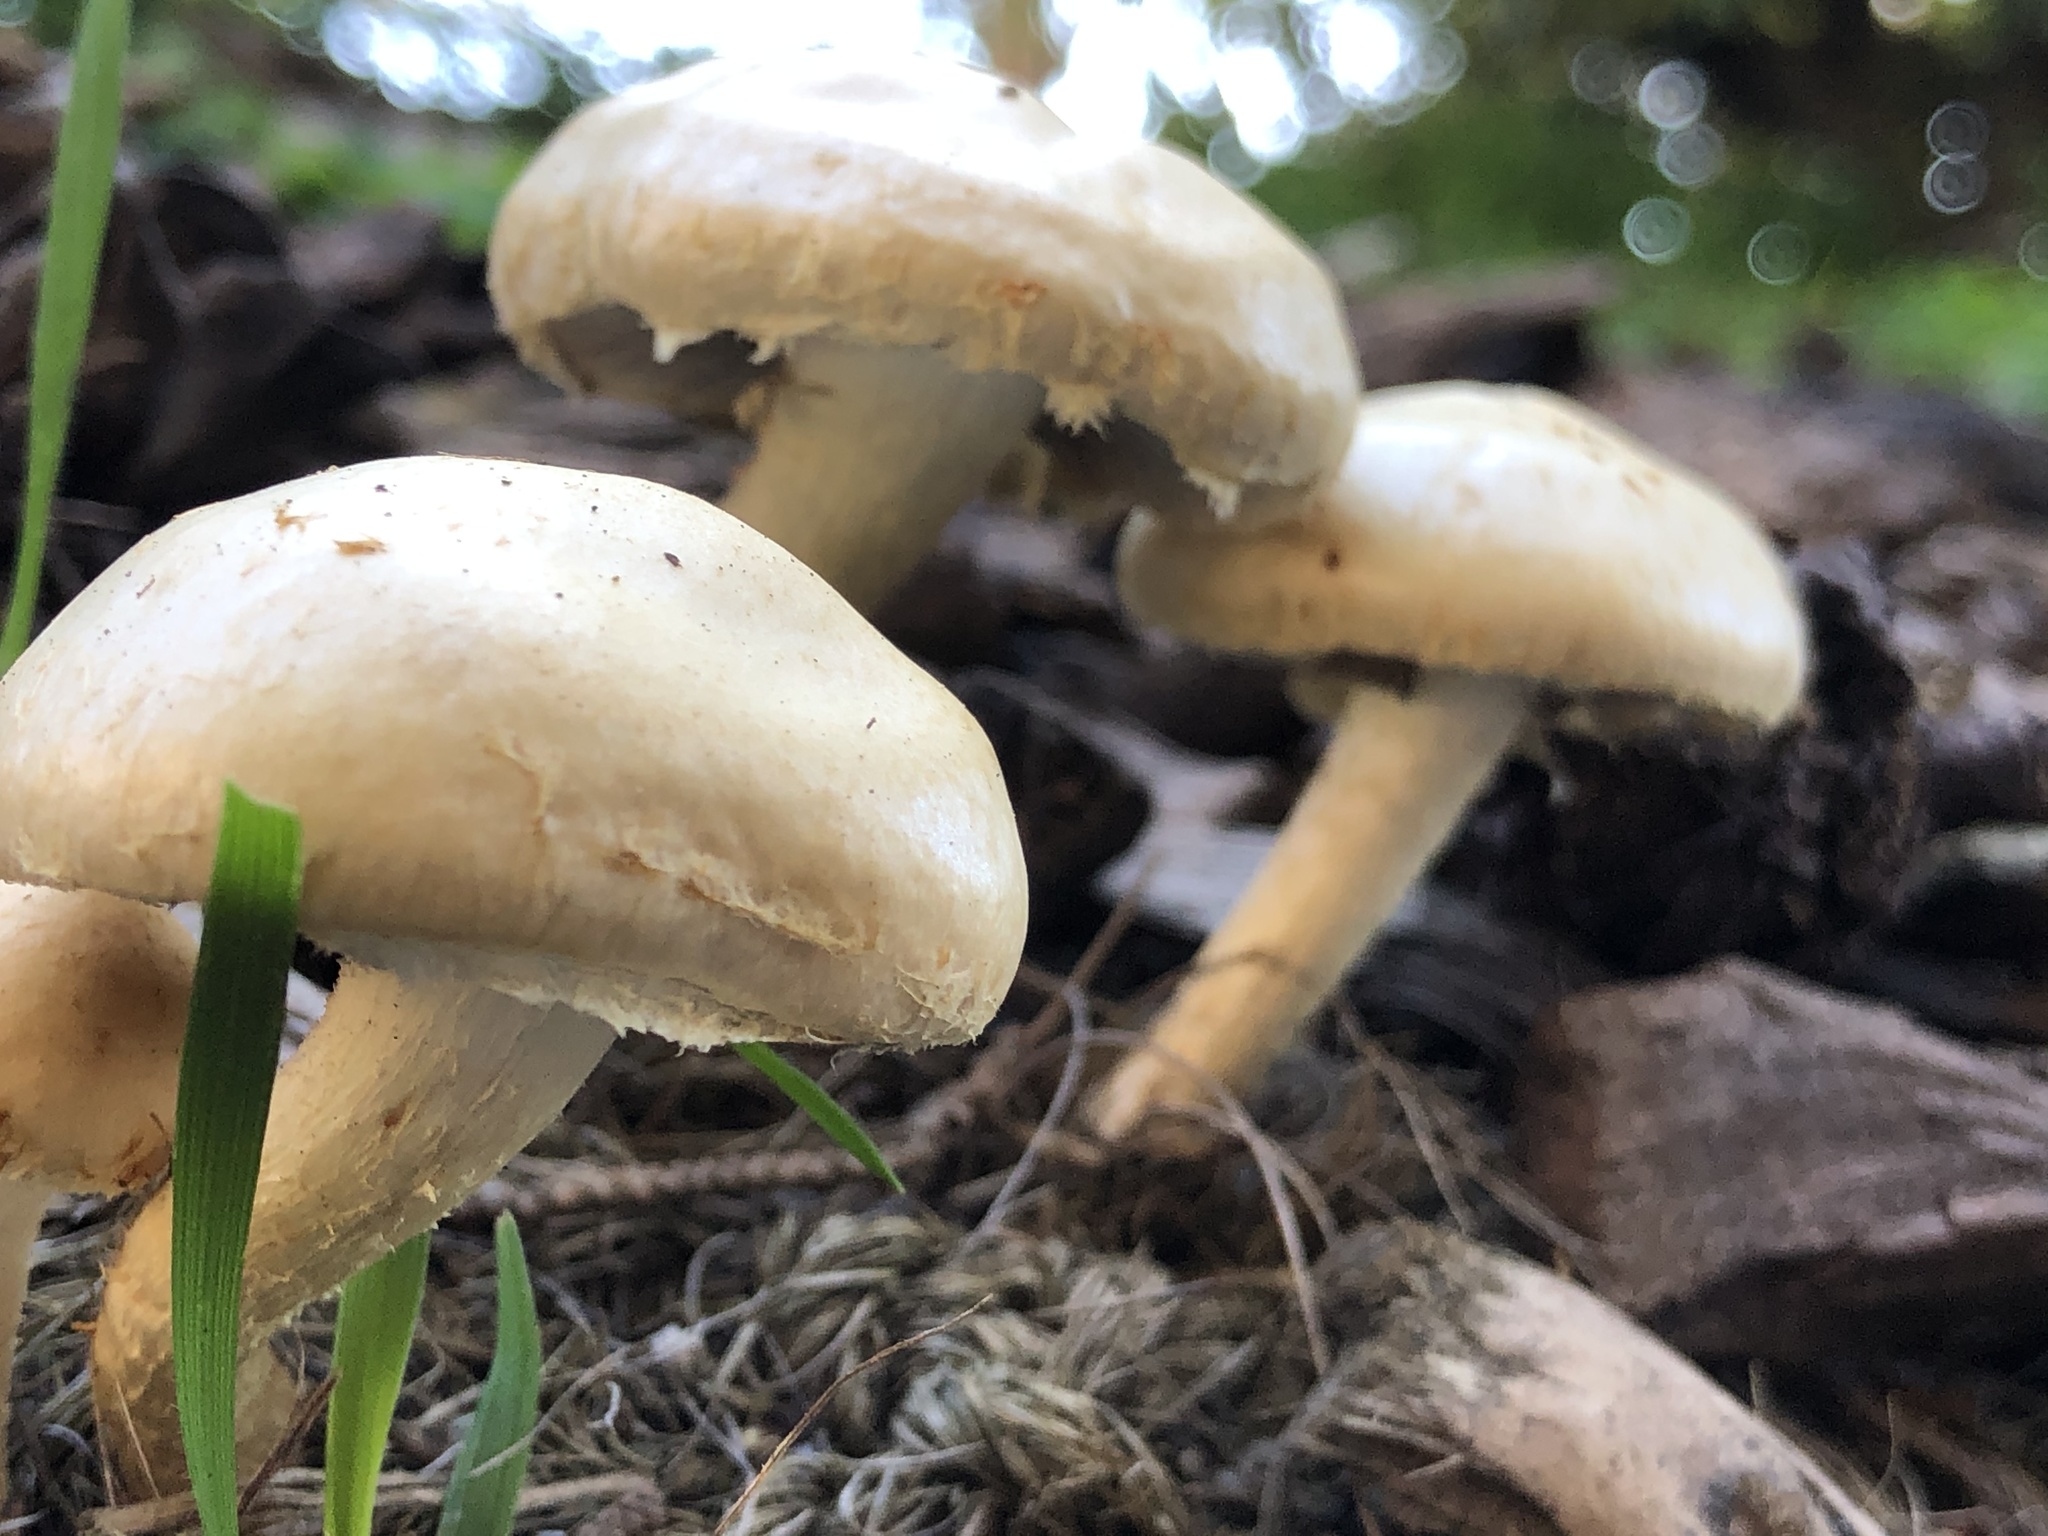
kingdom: Fungi
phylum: Basidiomycota
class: Agaricomycetes
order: Agaricales
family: Strophariaceae
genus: Leratiomyces
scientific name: Leratiomyces percevalii
